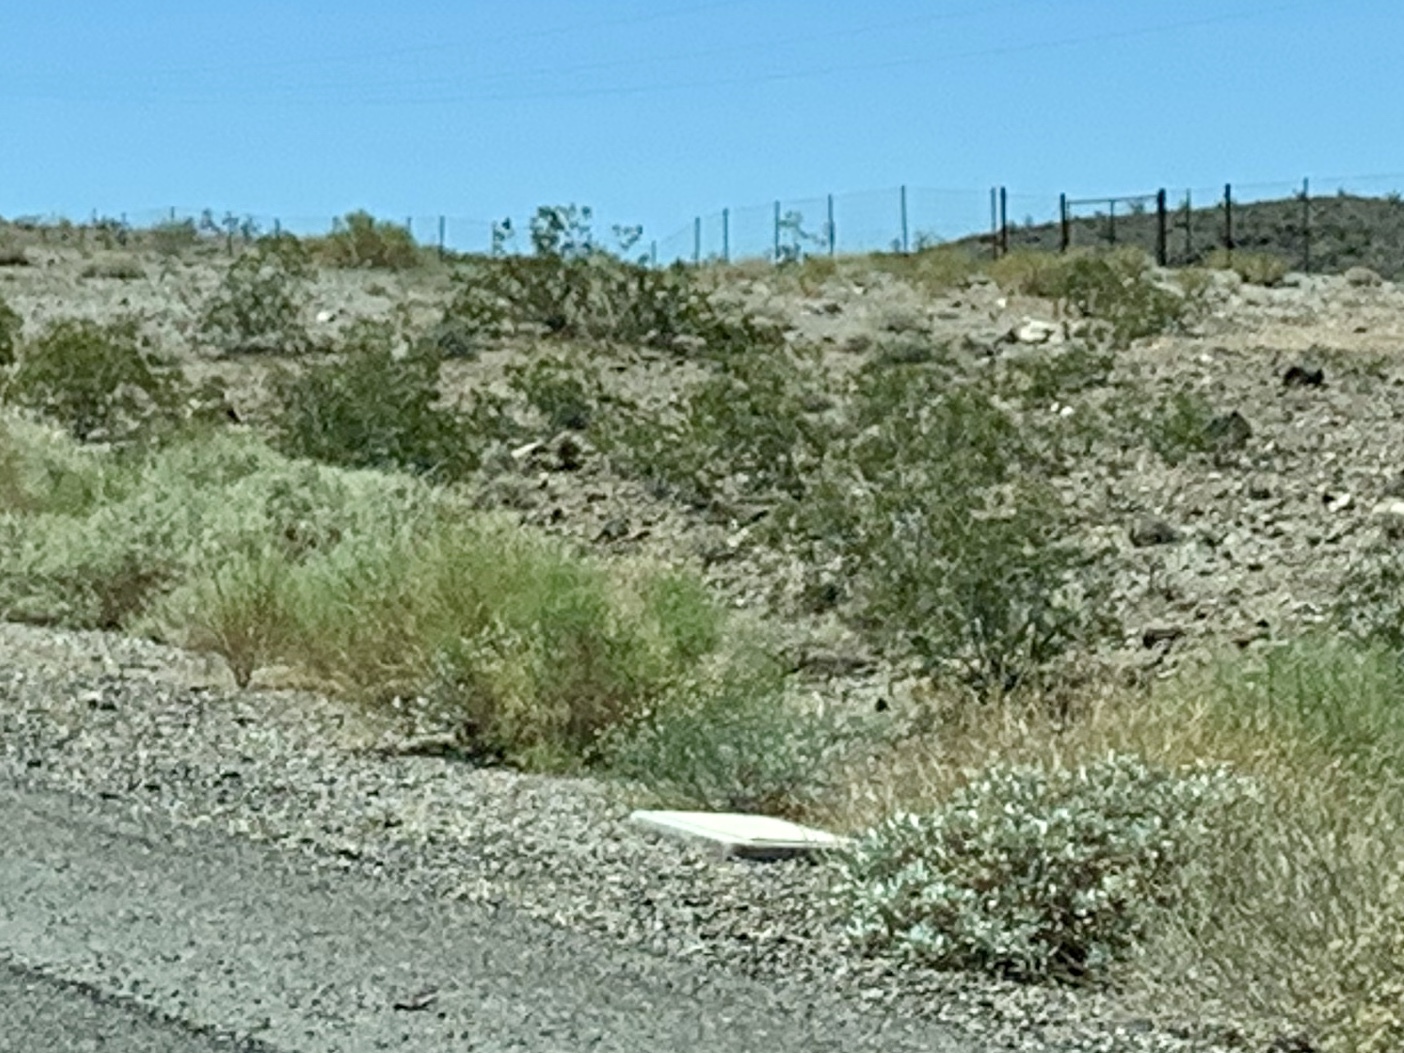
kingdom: Plantae
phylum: Tracheophyta
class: Magnoliopsida
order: Zygophyllales
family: Zygophyllaceae
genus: Larrea
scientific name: Larrea tridentata
